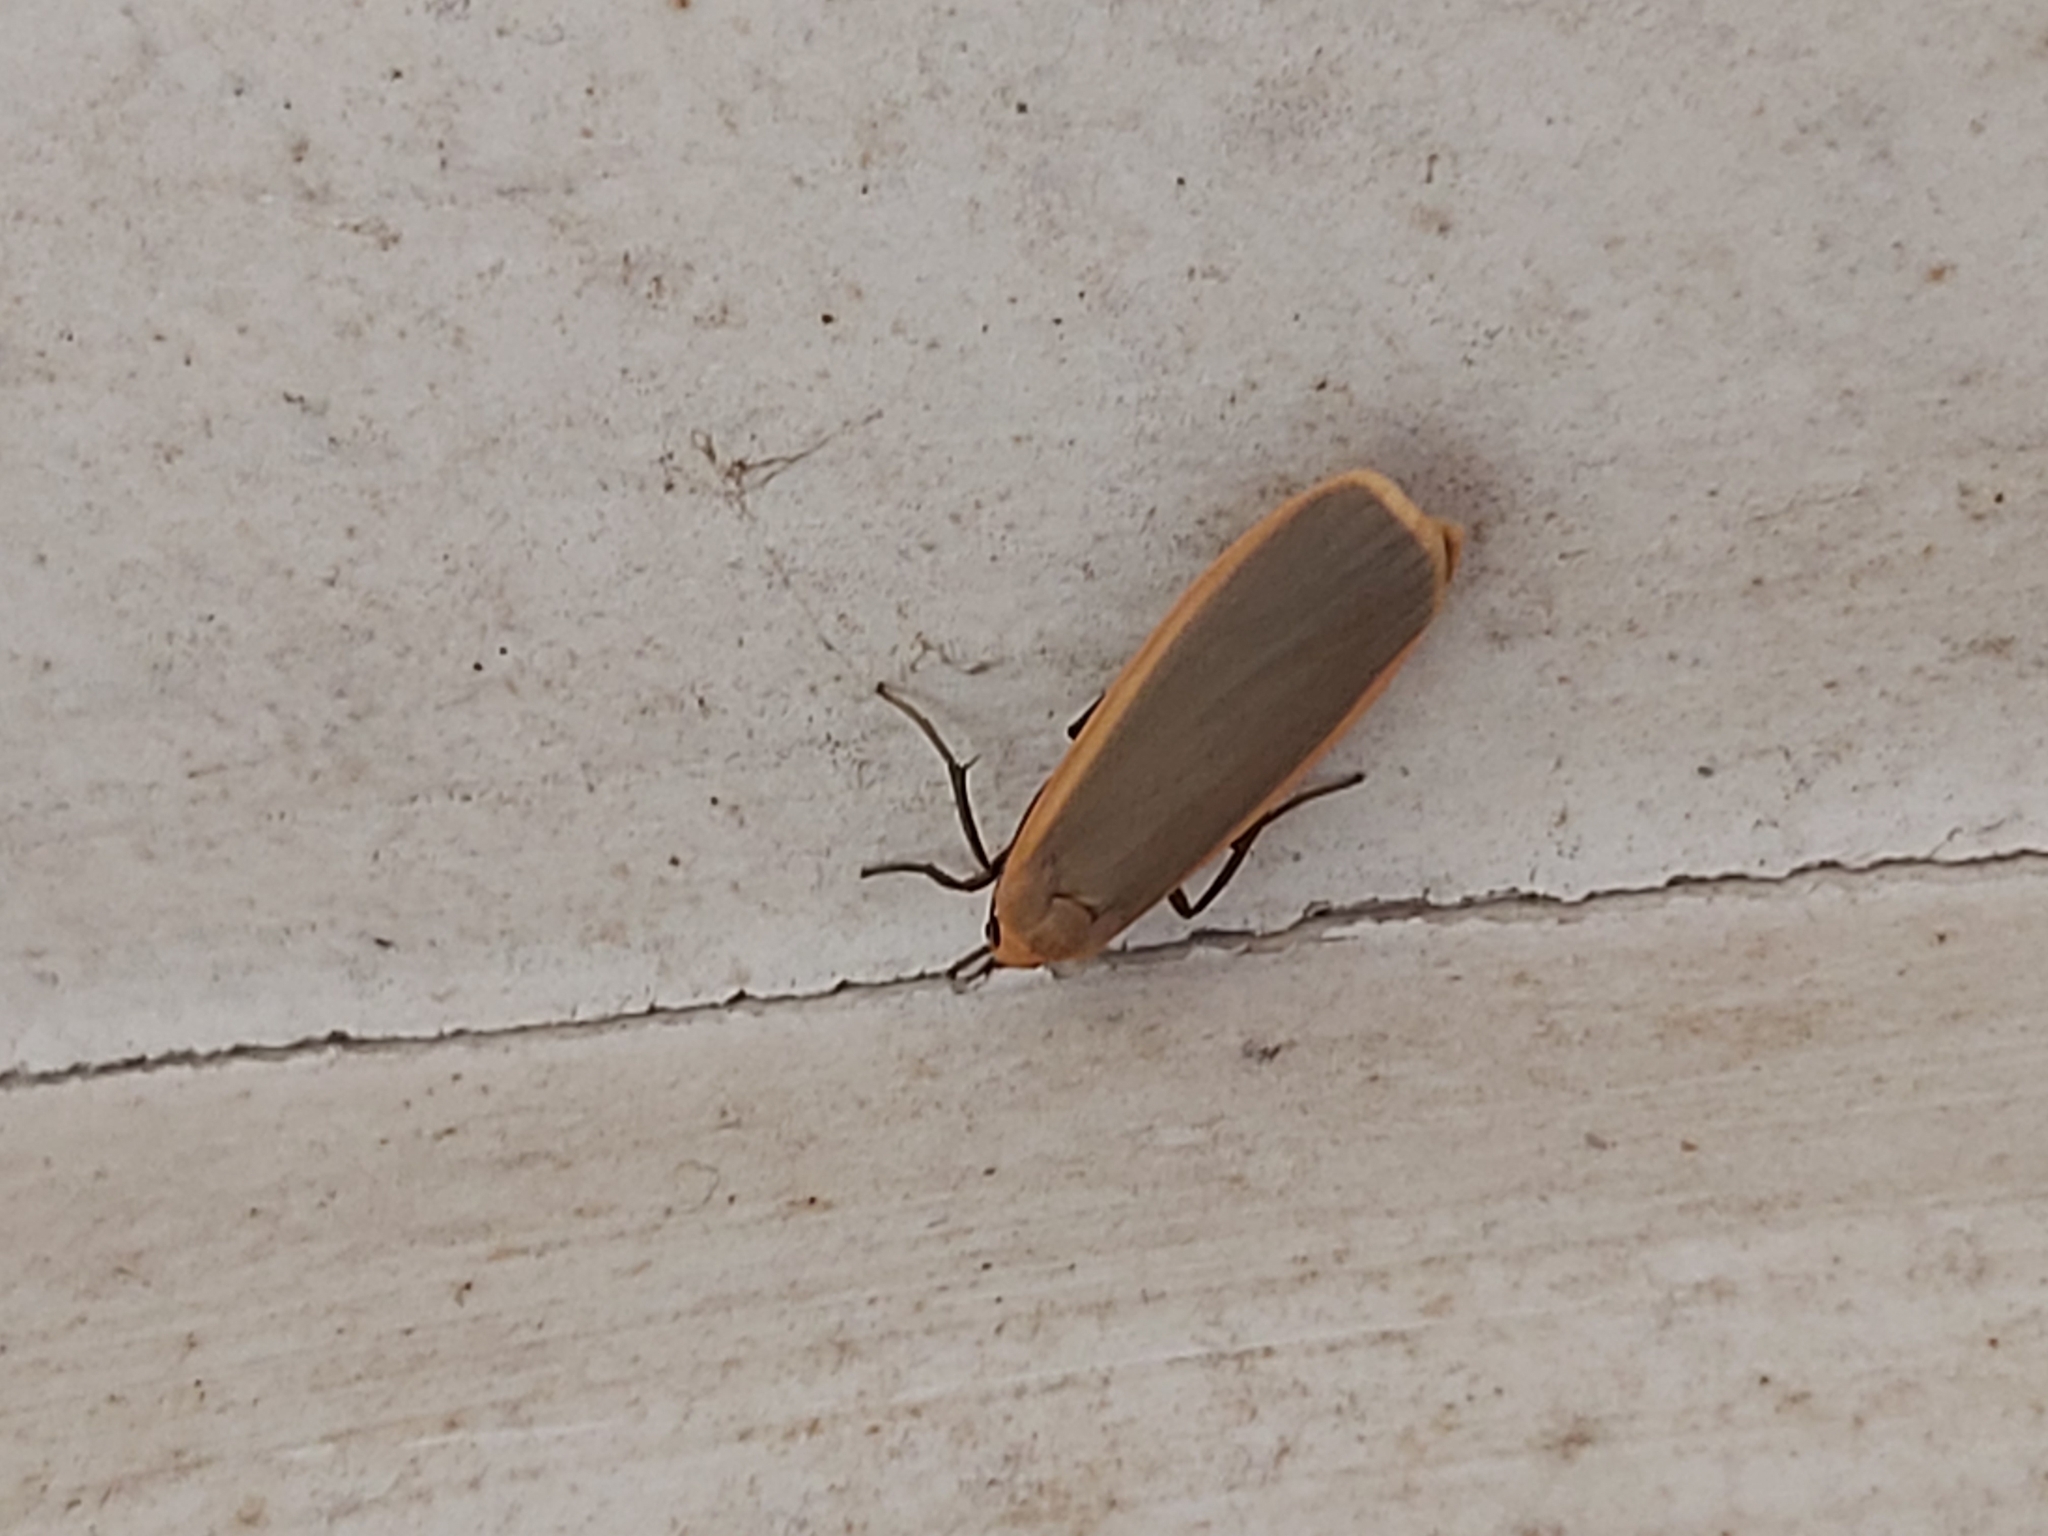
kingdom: Animalia
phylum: Arthropoda
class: Insecta
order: Lepidoptera
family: Erebidae
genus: Katha
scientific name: Katha depressa
